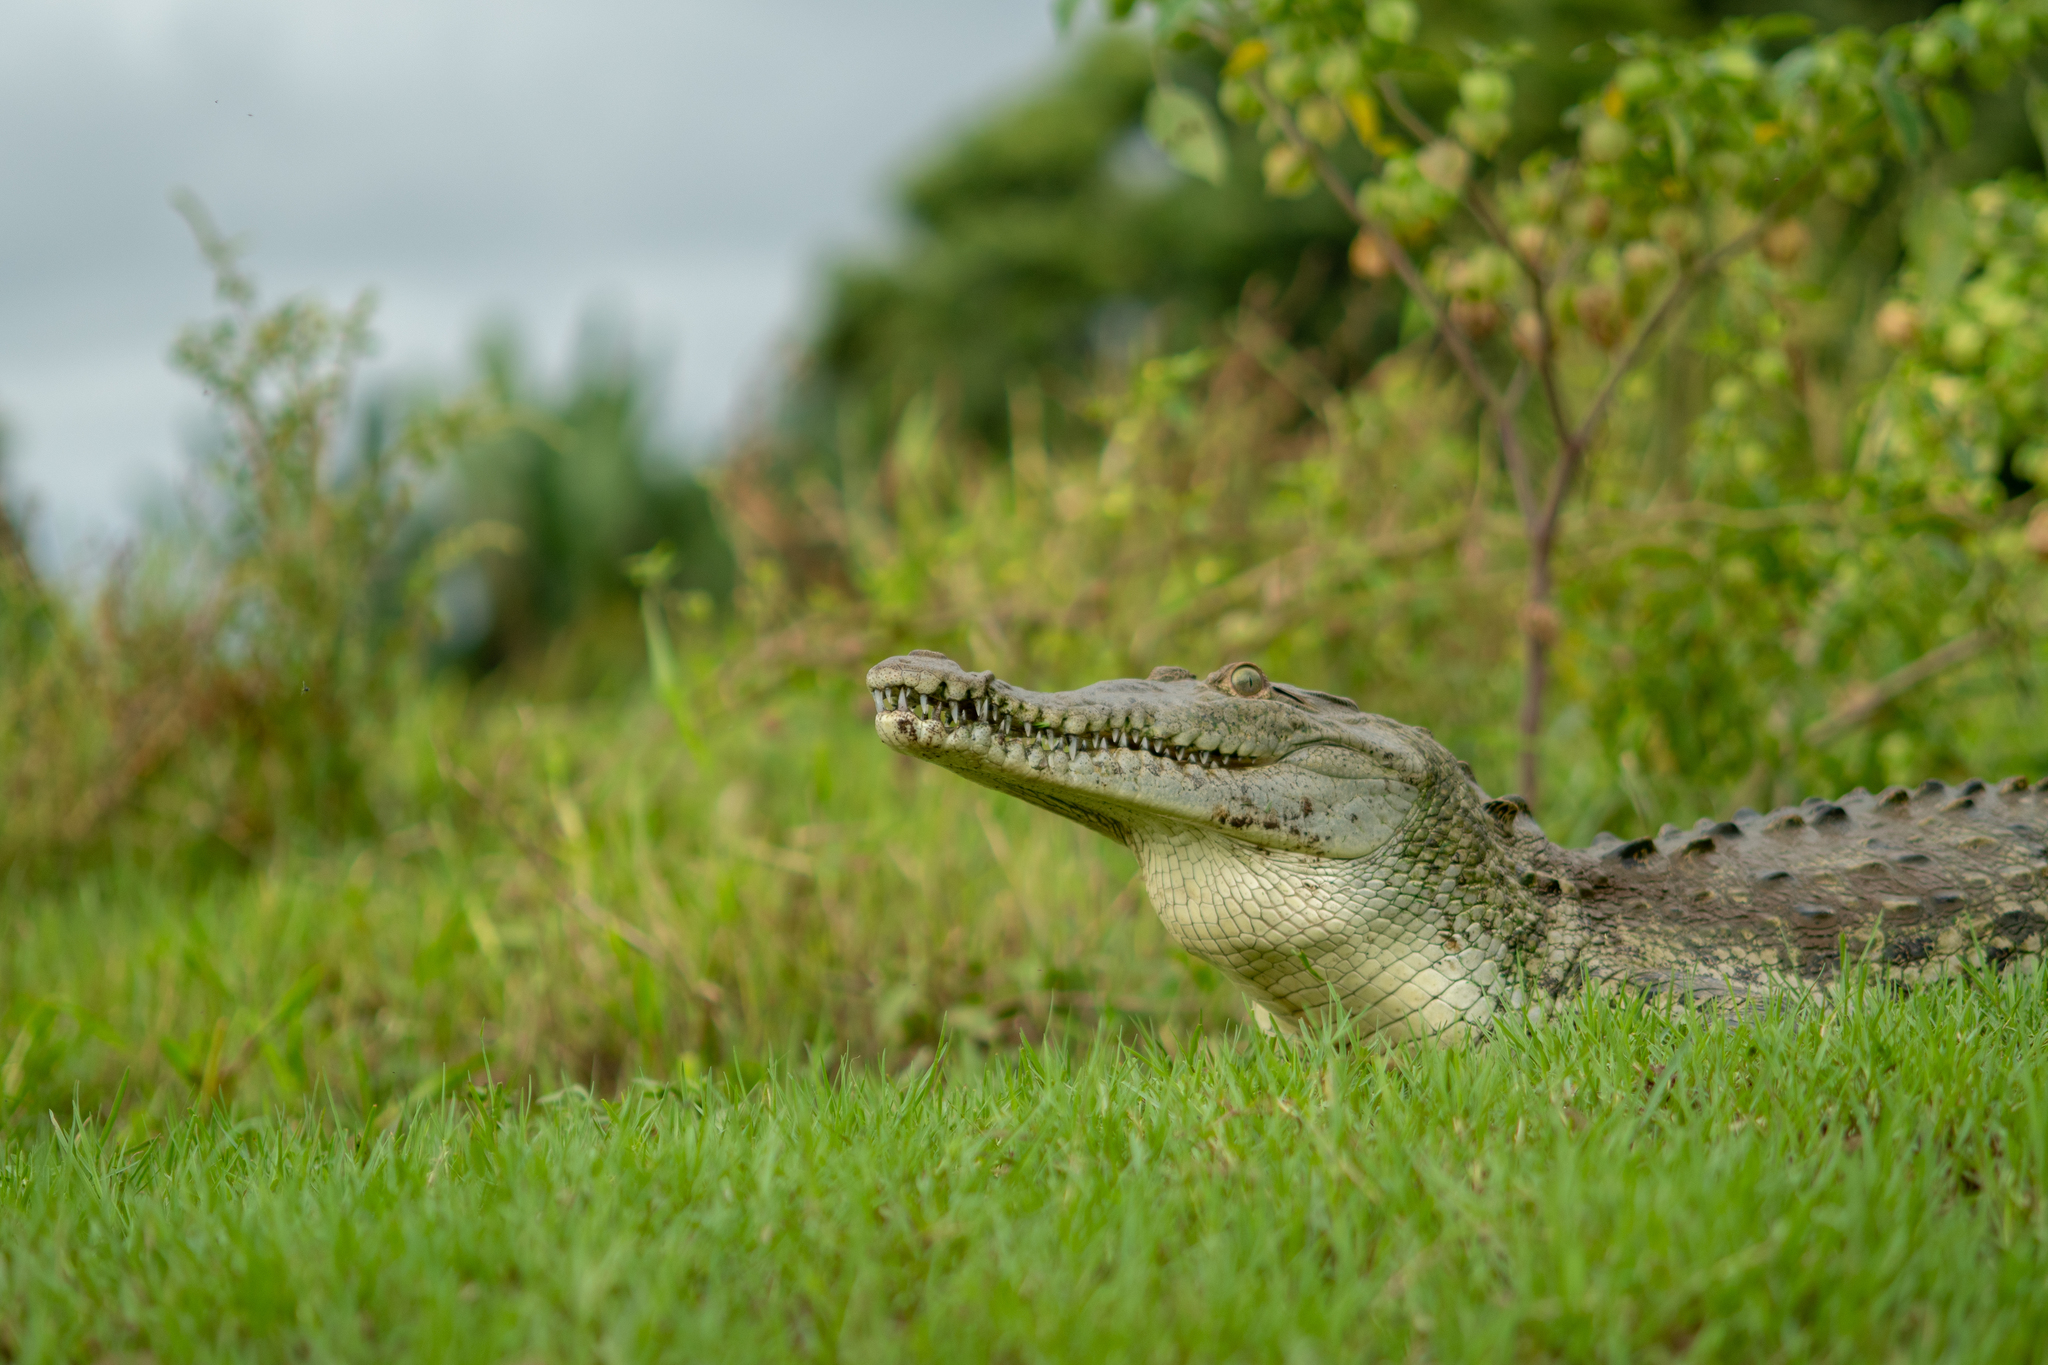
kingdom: Animalia
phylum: Chordata
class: Crocodylia
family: Crocodylidae
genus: Crocodylus
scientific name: Crocodylus acutus
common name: American crocodile
